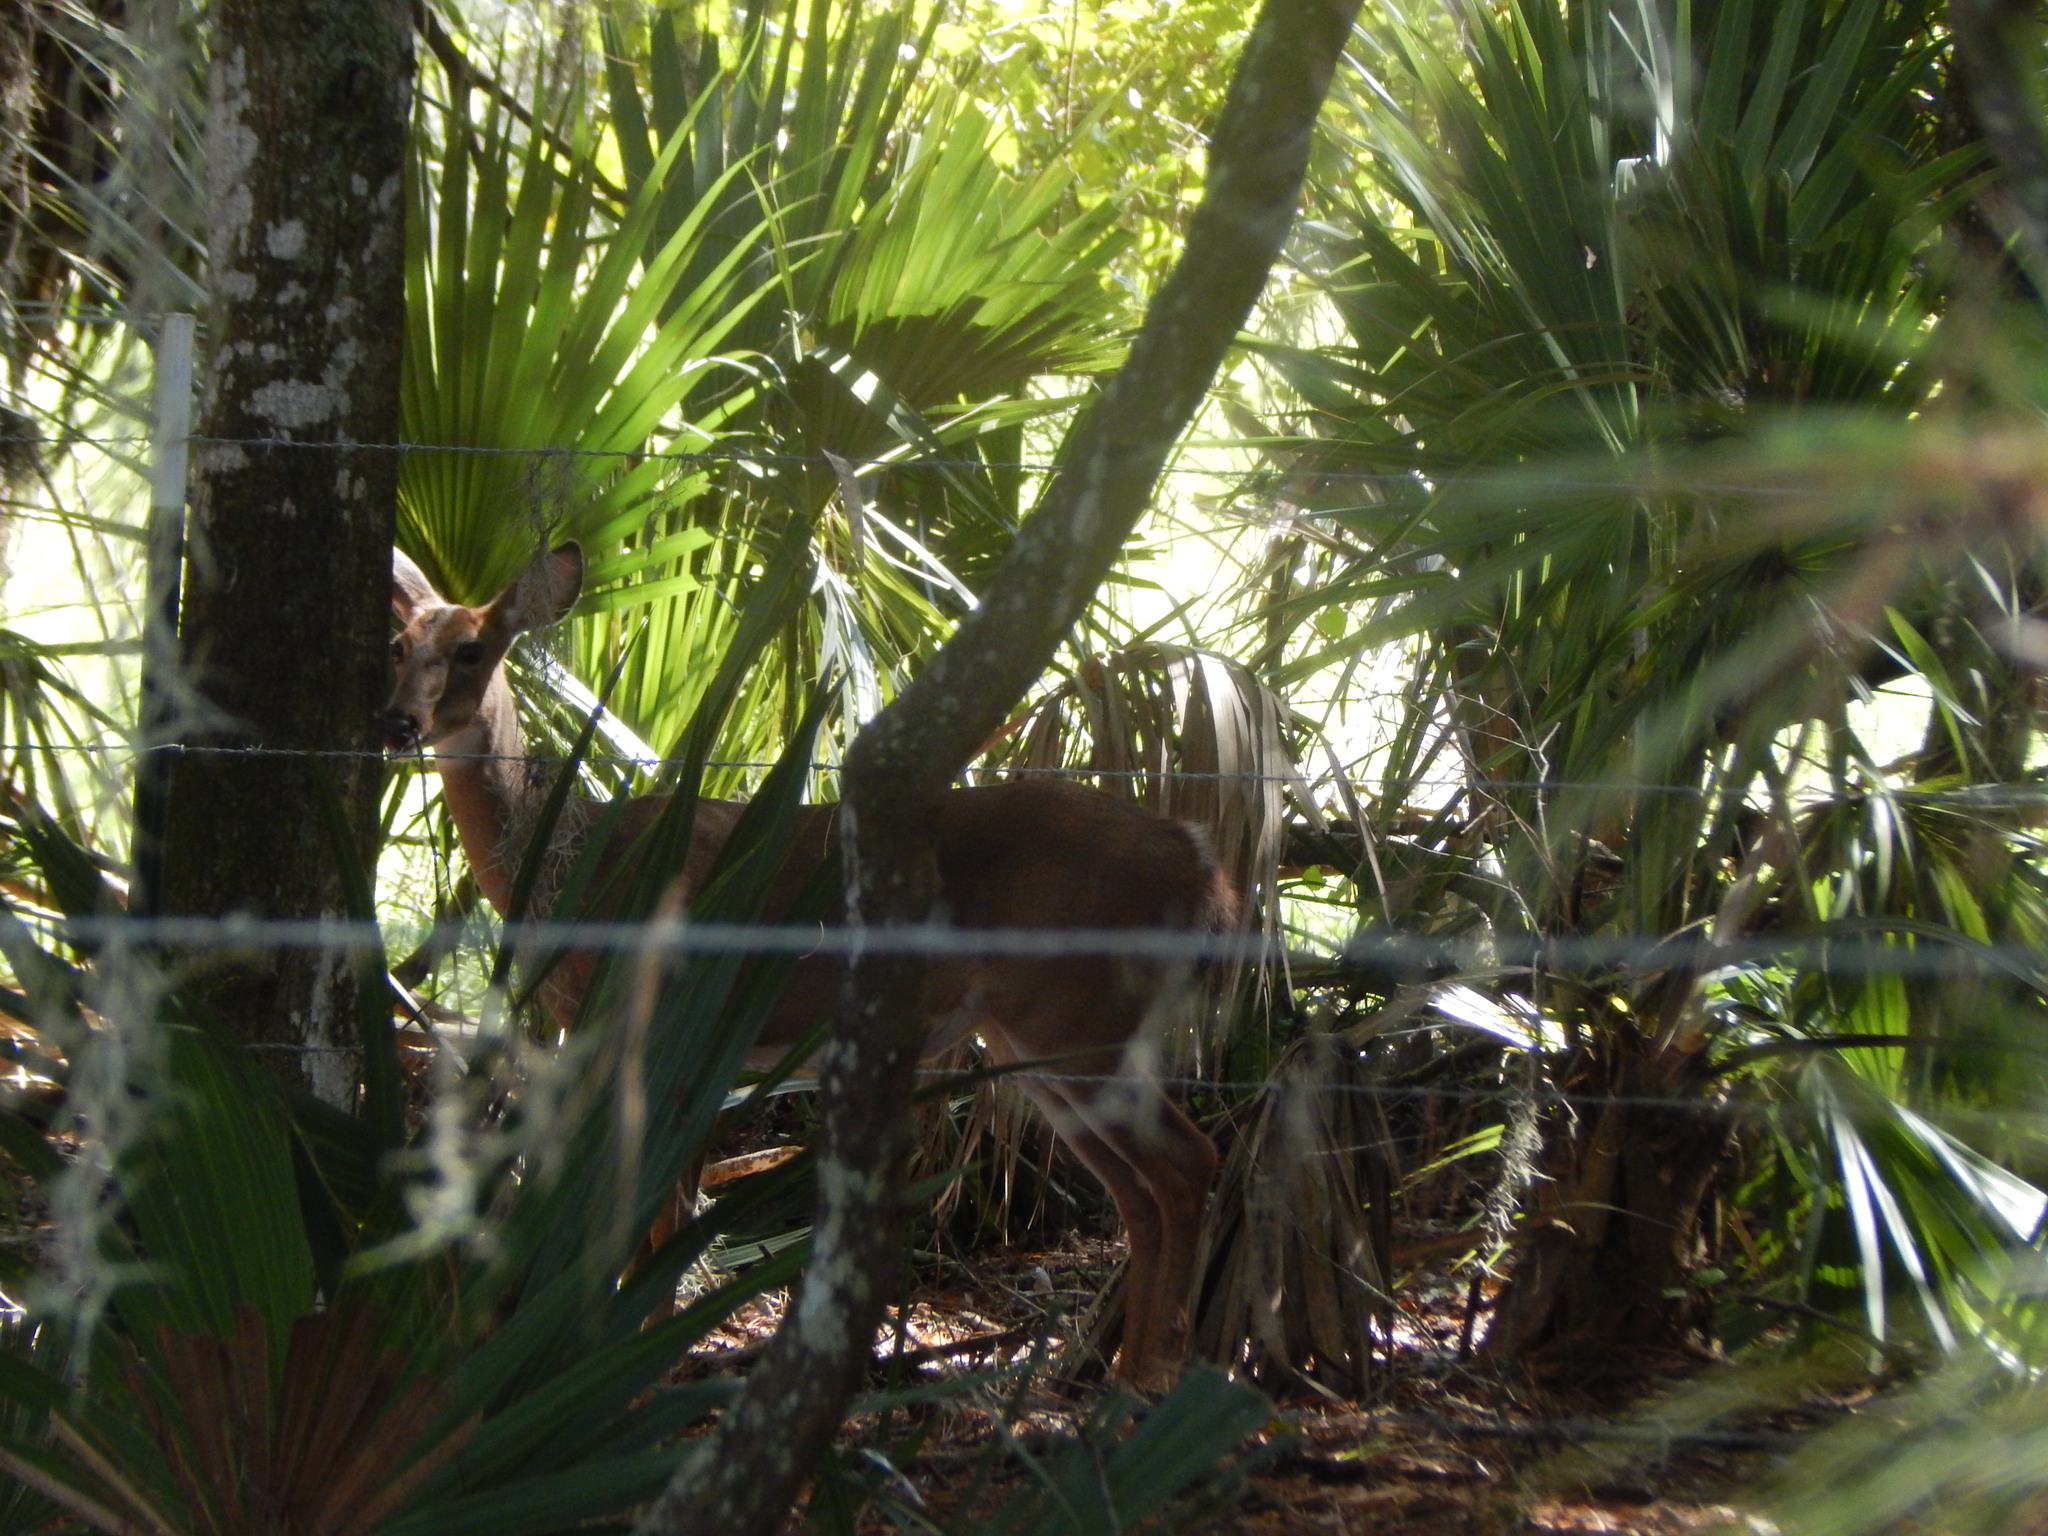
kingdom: Animalia
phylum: Chordata
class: Mammalia
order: Artiodactyla
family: Cervidae
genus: Odocoileus
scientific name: Odocoileus virginianus
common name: White-tailed deer
